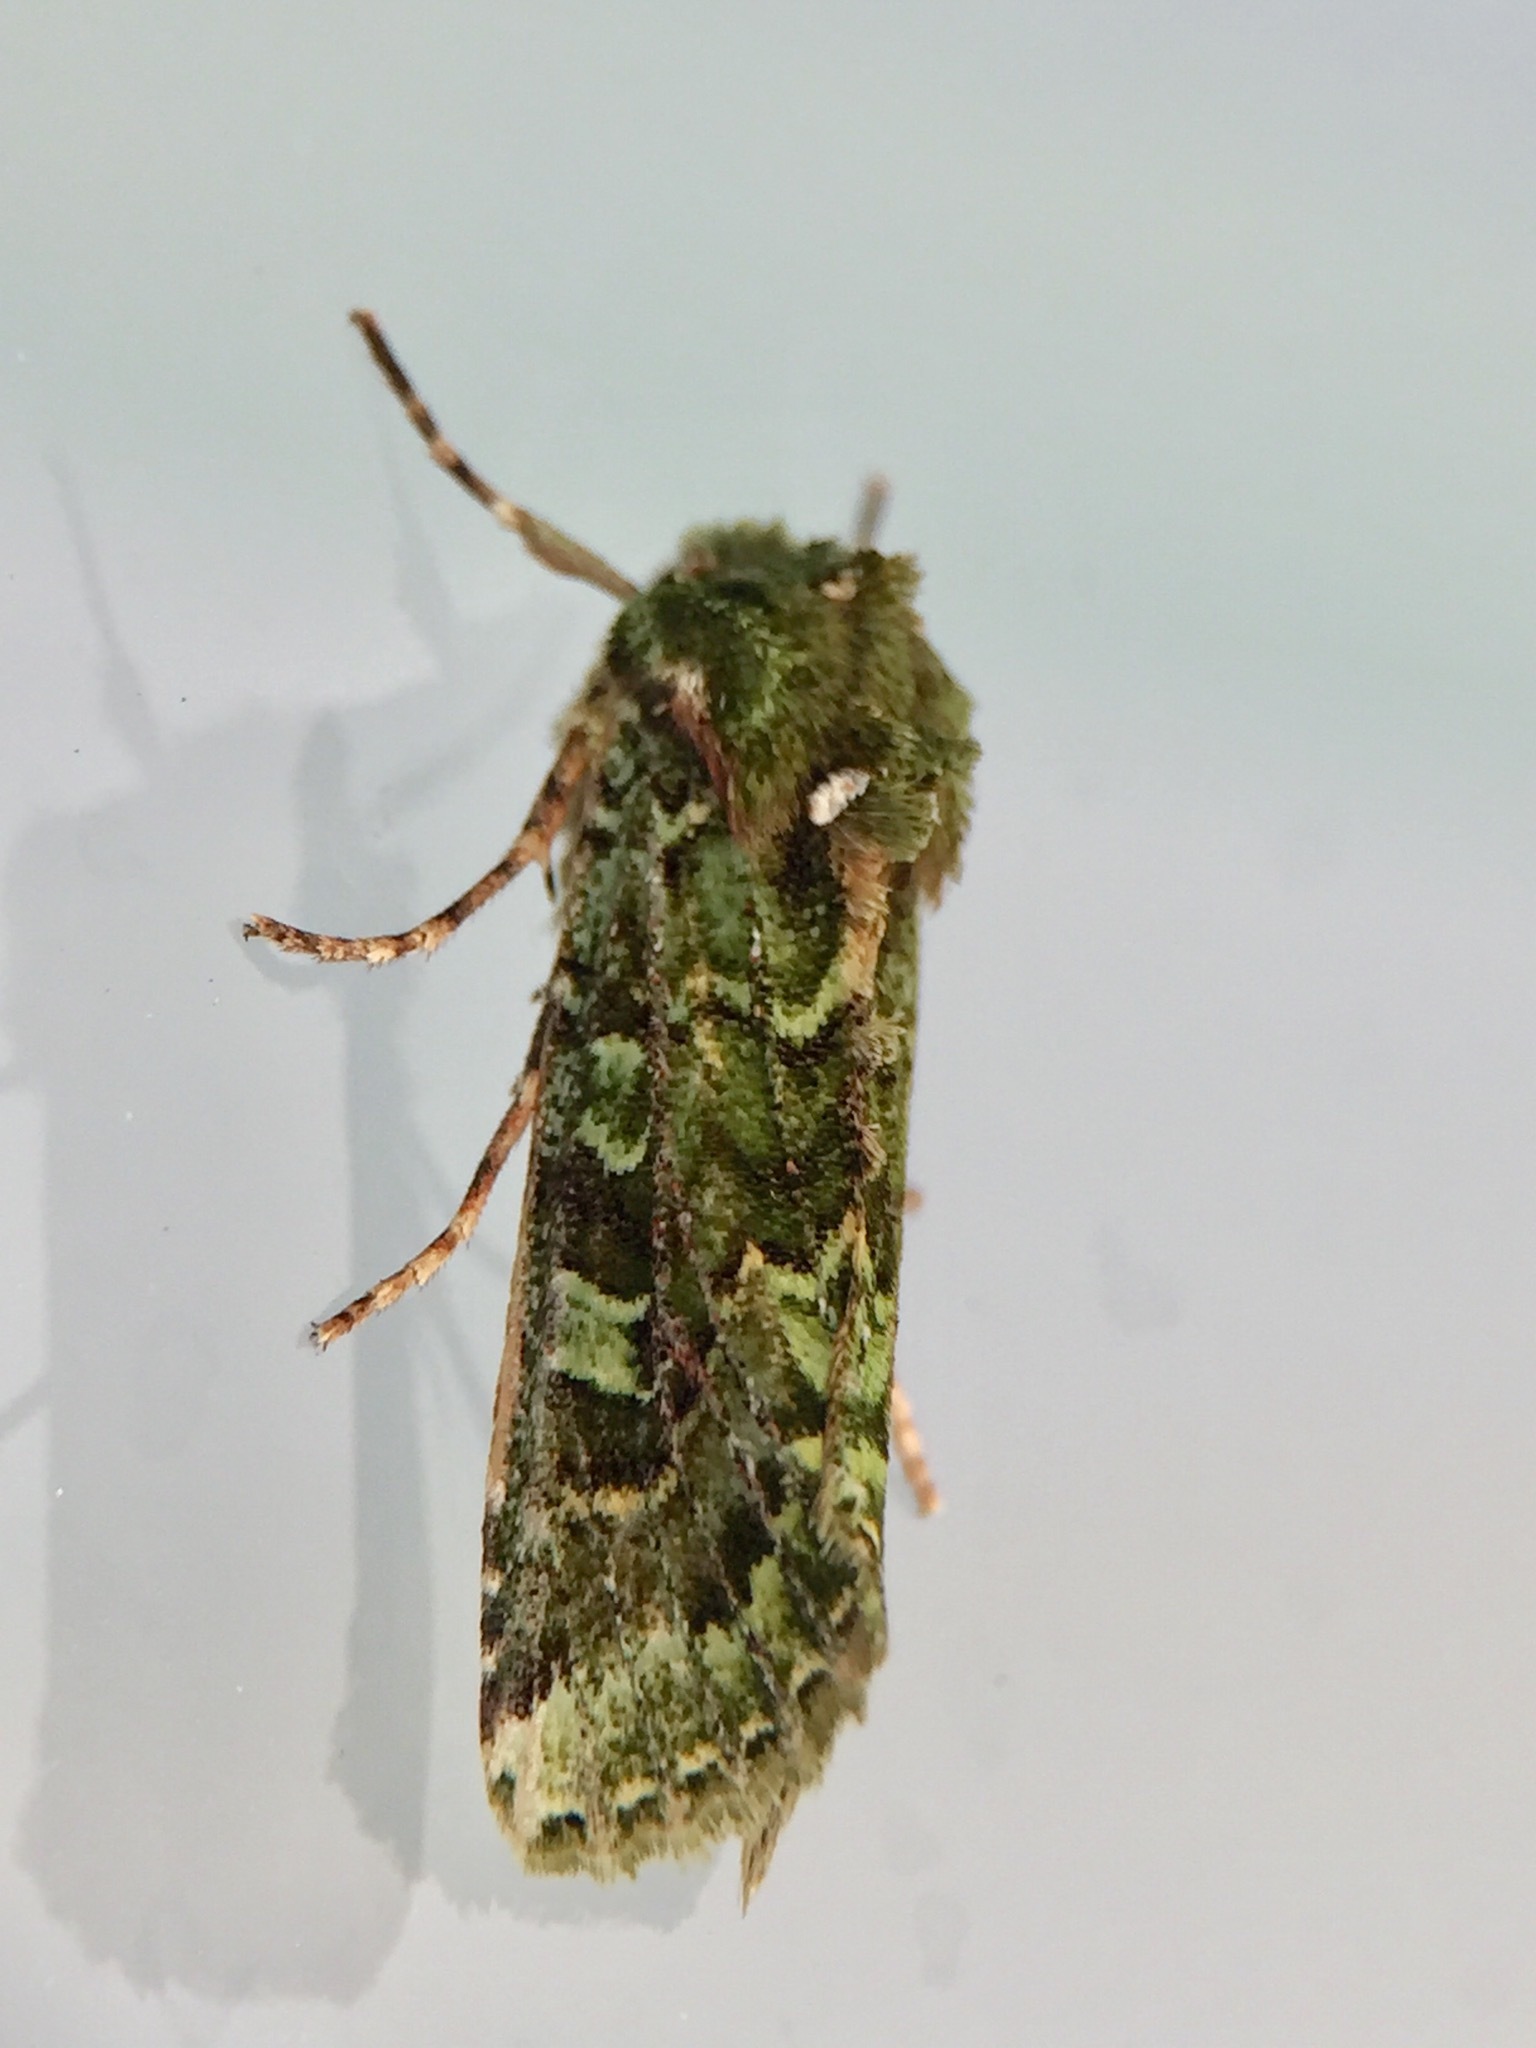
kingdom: Animalia
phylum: Arthropoda
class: Insecta
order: Lepidoptera
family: Noctuidae
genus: Feredayia
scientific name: Feredayia grammosa
